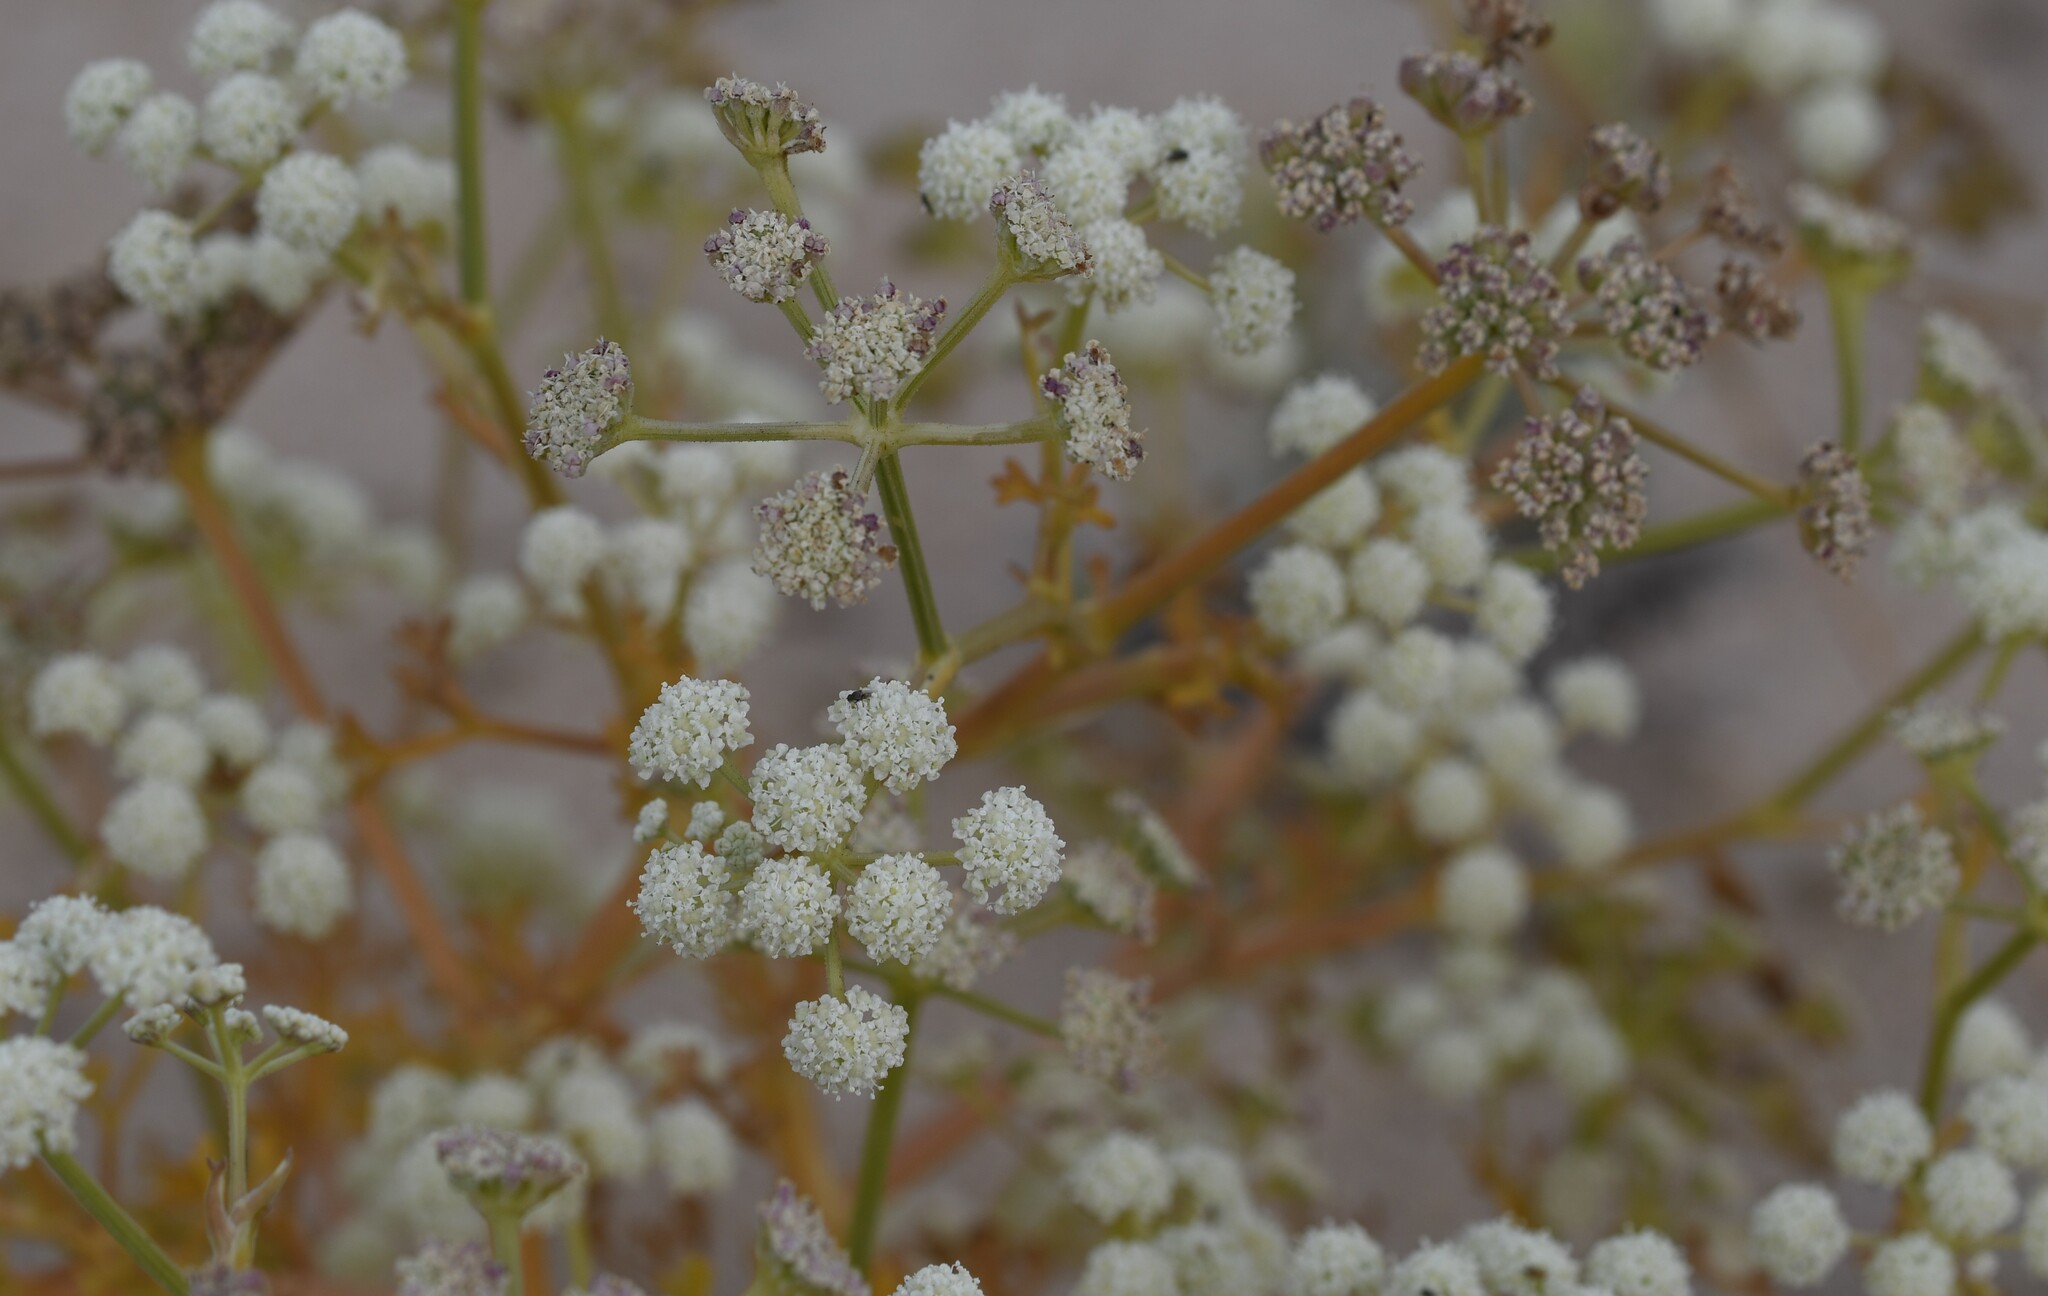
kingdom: Plantae
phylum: Tracheophyta
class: Magnoliopsida
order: Apiales
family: Apiaceae
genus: Seseli
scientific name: Seseli tortuosum
